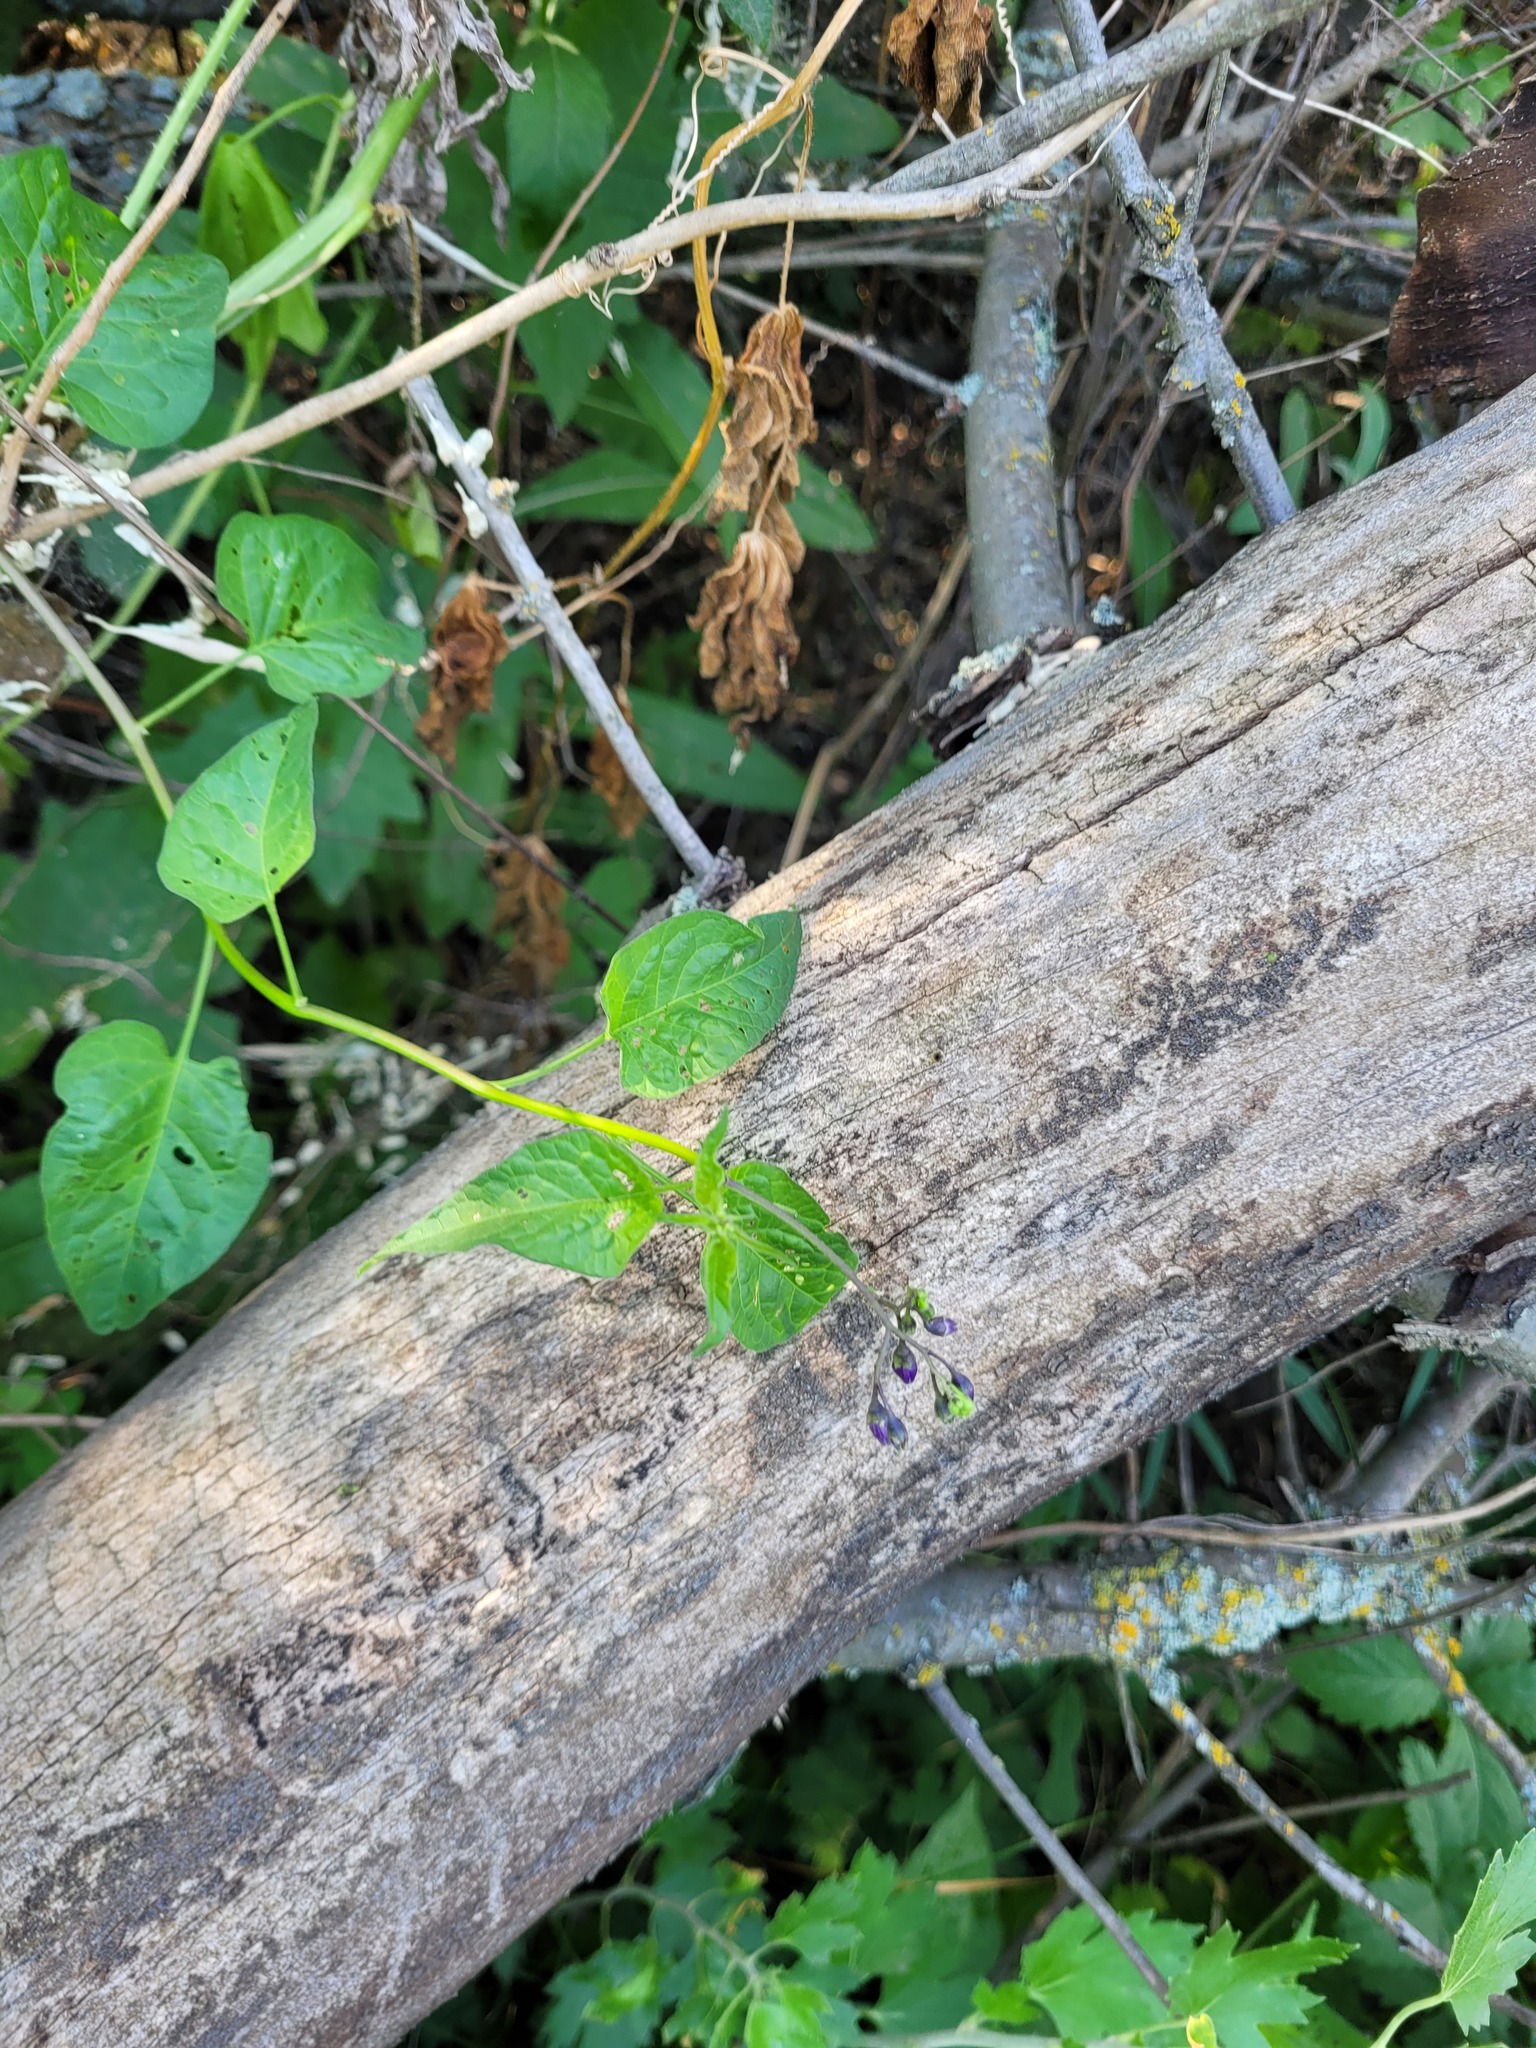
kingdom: Plantae
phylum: Tracheophyta
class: Magnoliopsida
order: Solanales
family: Solanaceae
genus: Solanum
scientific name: Solanum dulcamara
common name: Climbing nightshade
